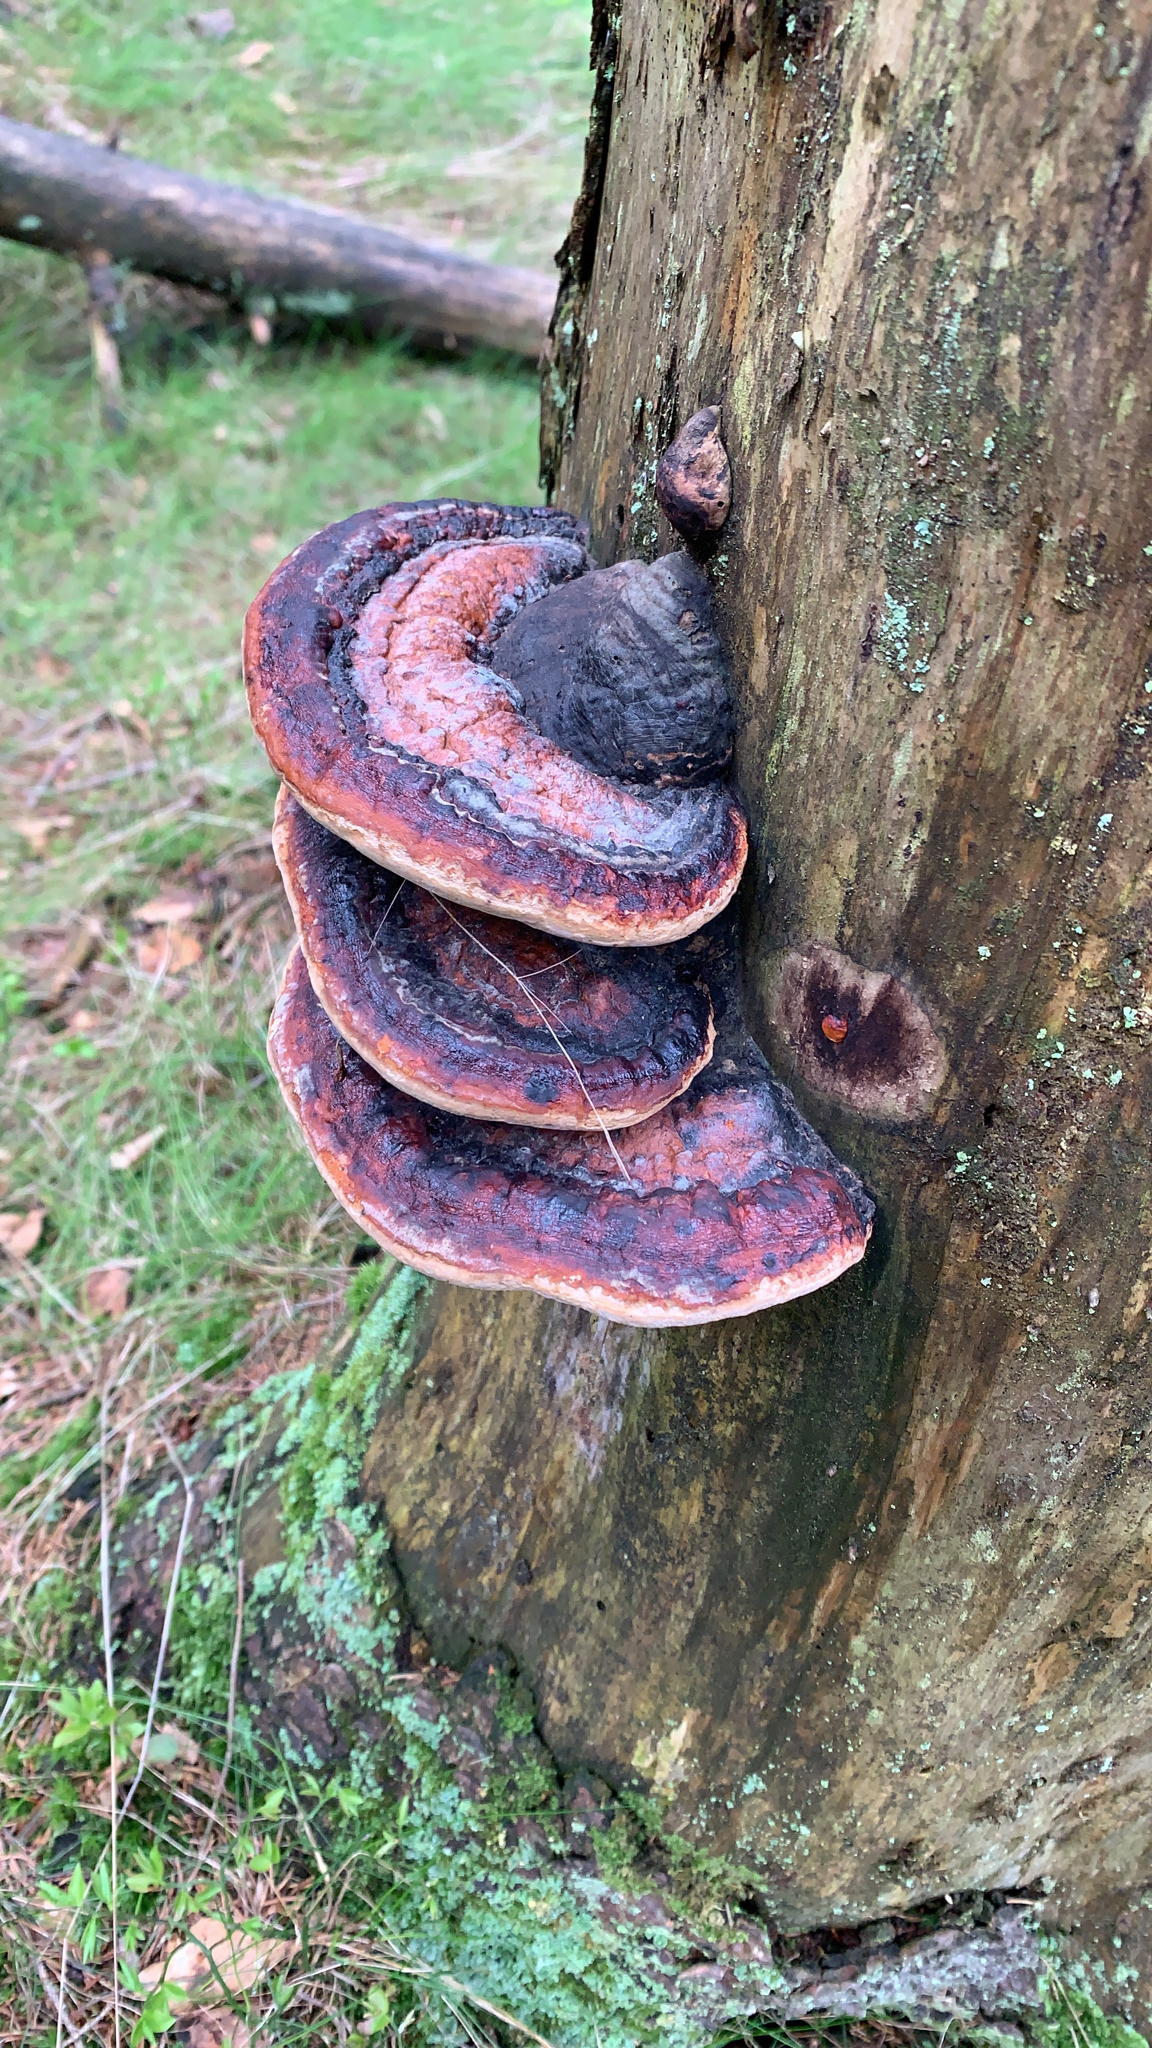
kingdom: Fungi
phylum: Basidiomycota
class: Agaricomycetes
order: Polyporales
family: Fomitopsidaceae
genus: Fomitopsis
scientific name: Fomitopsis pinicola
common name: Red-belted bracket
